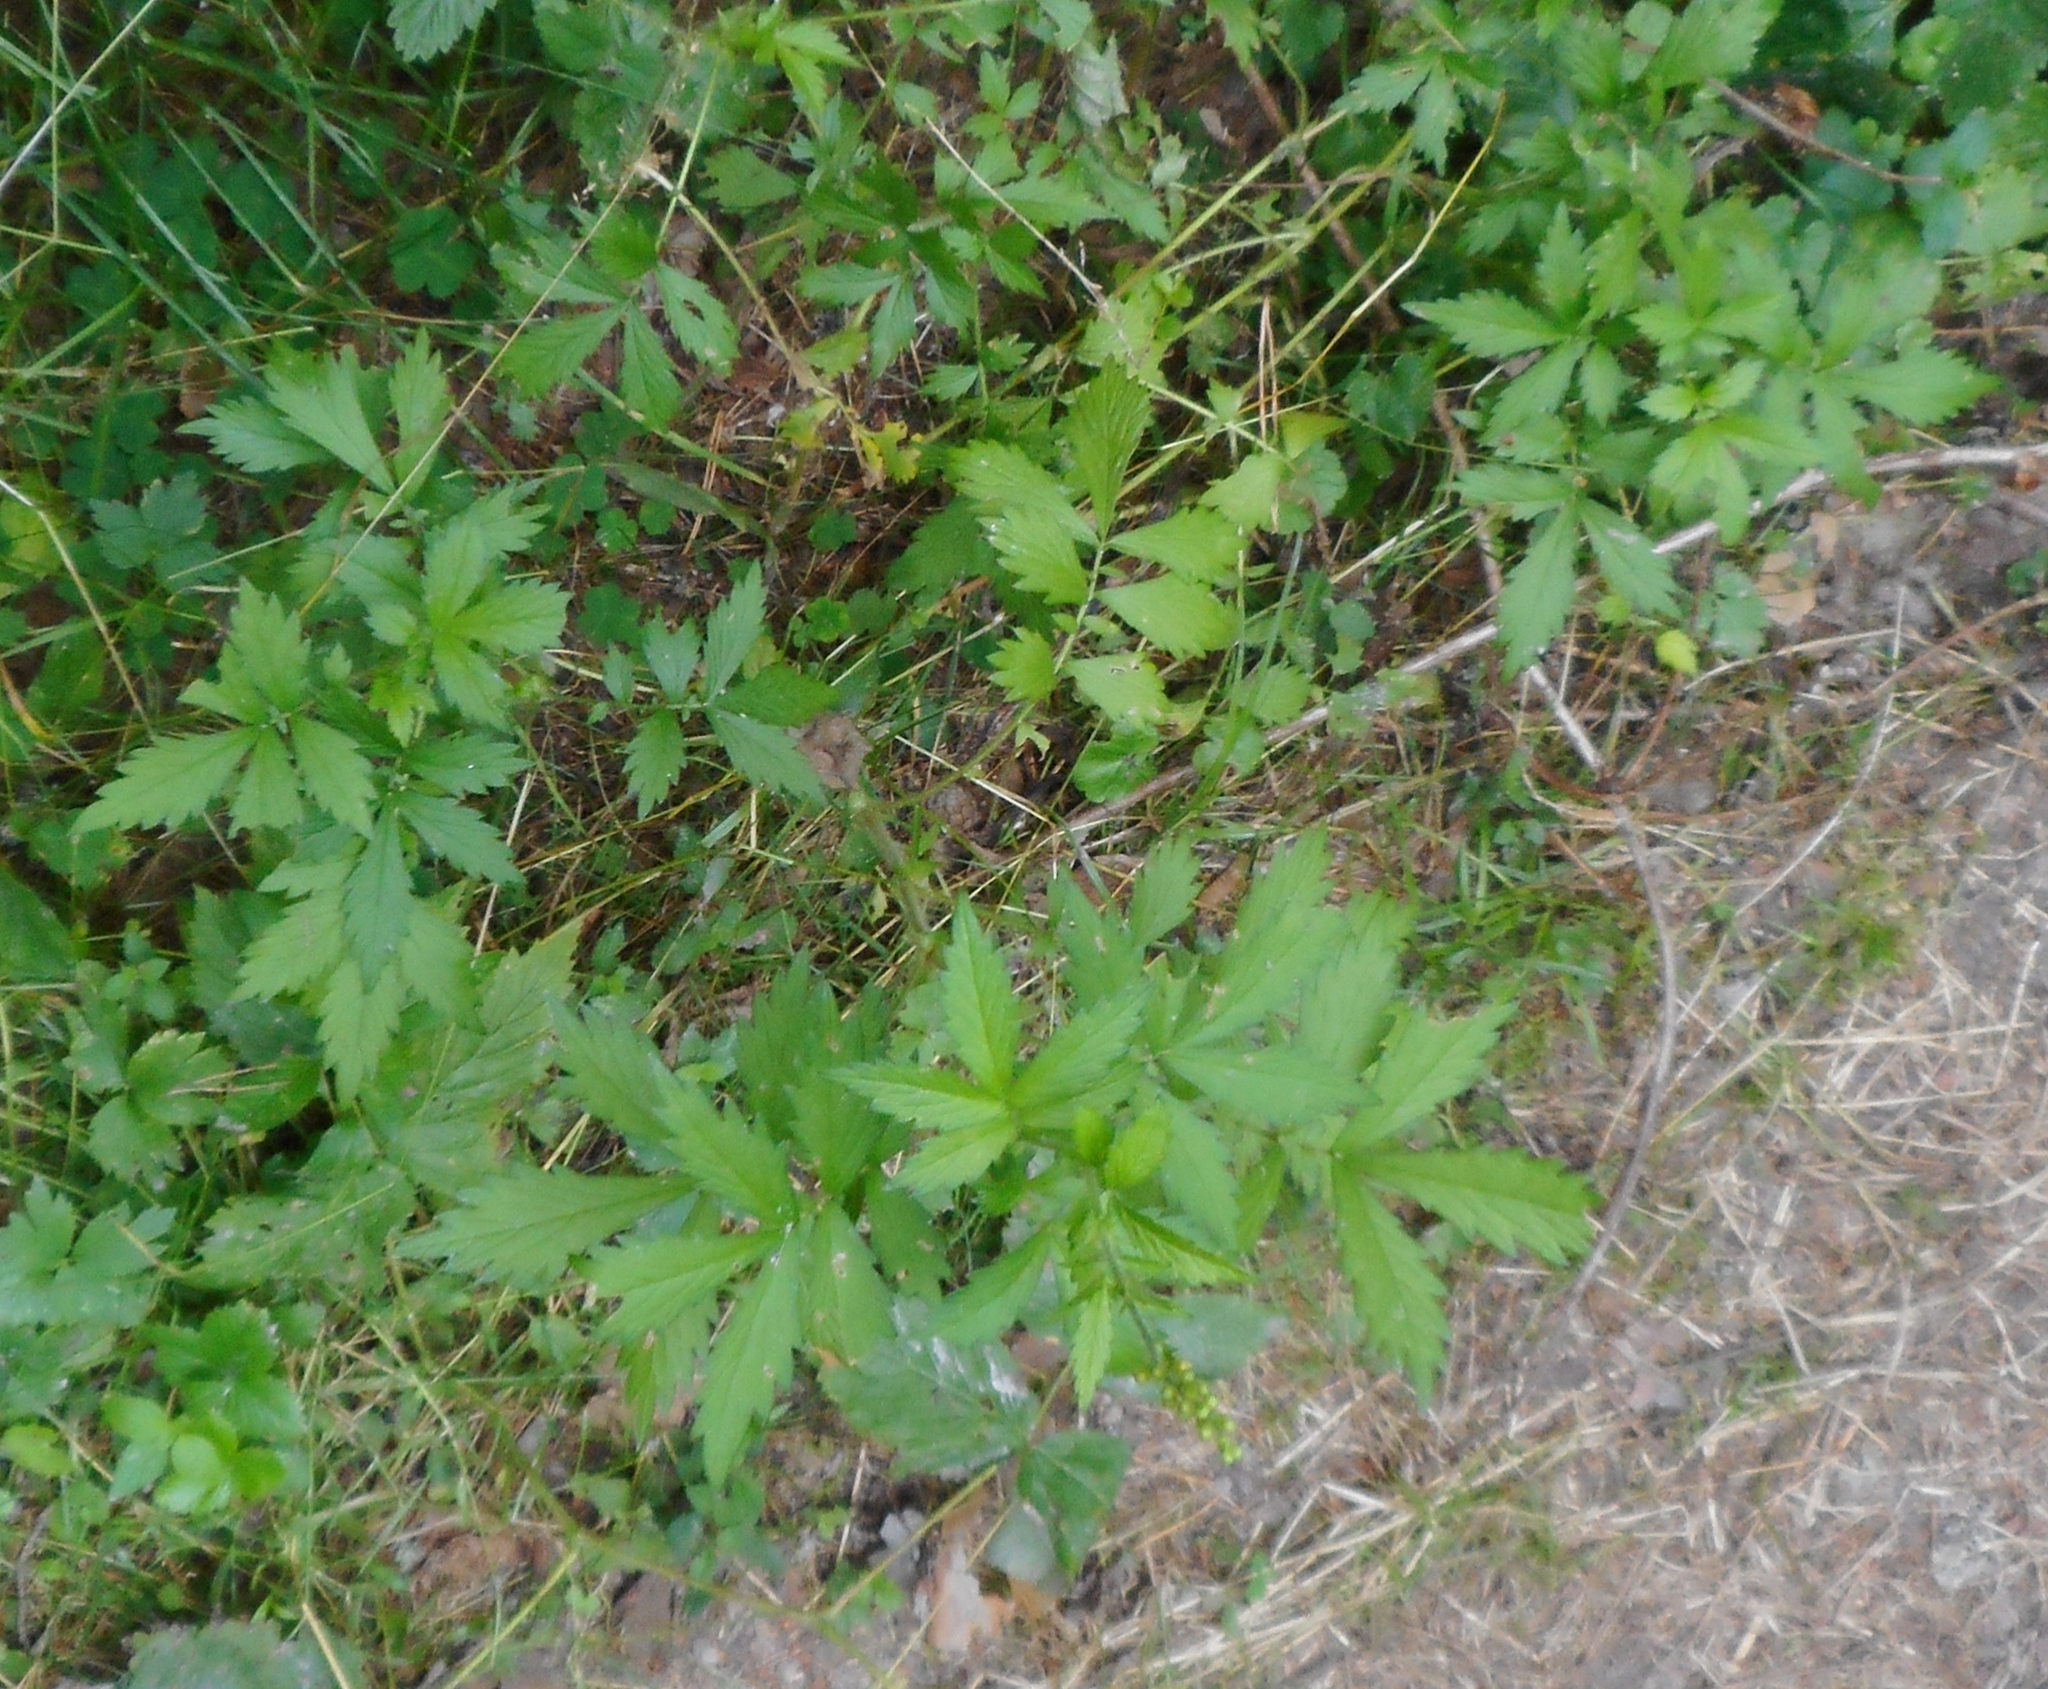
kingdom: Plantae
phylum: Tracheophyta
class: Magnoliopsida
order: Rosales
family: Rosaceae
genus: Agrimonia
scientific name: Agrimonia pilosa
